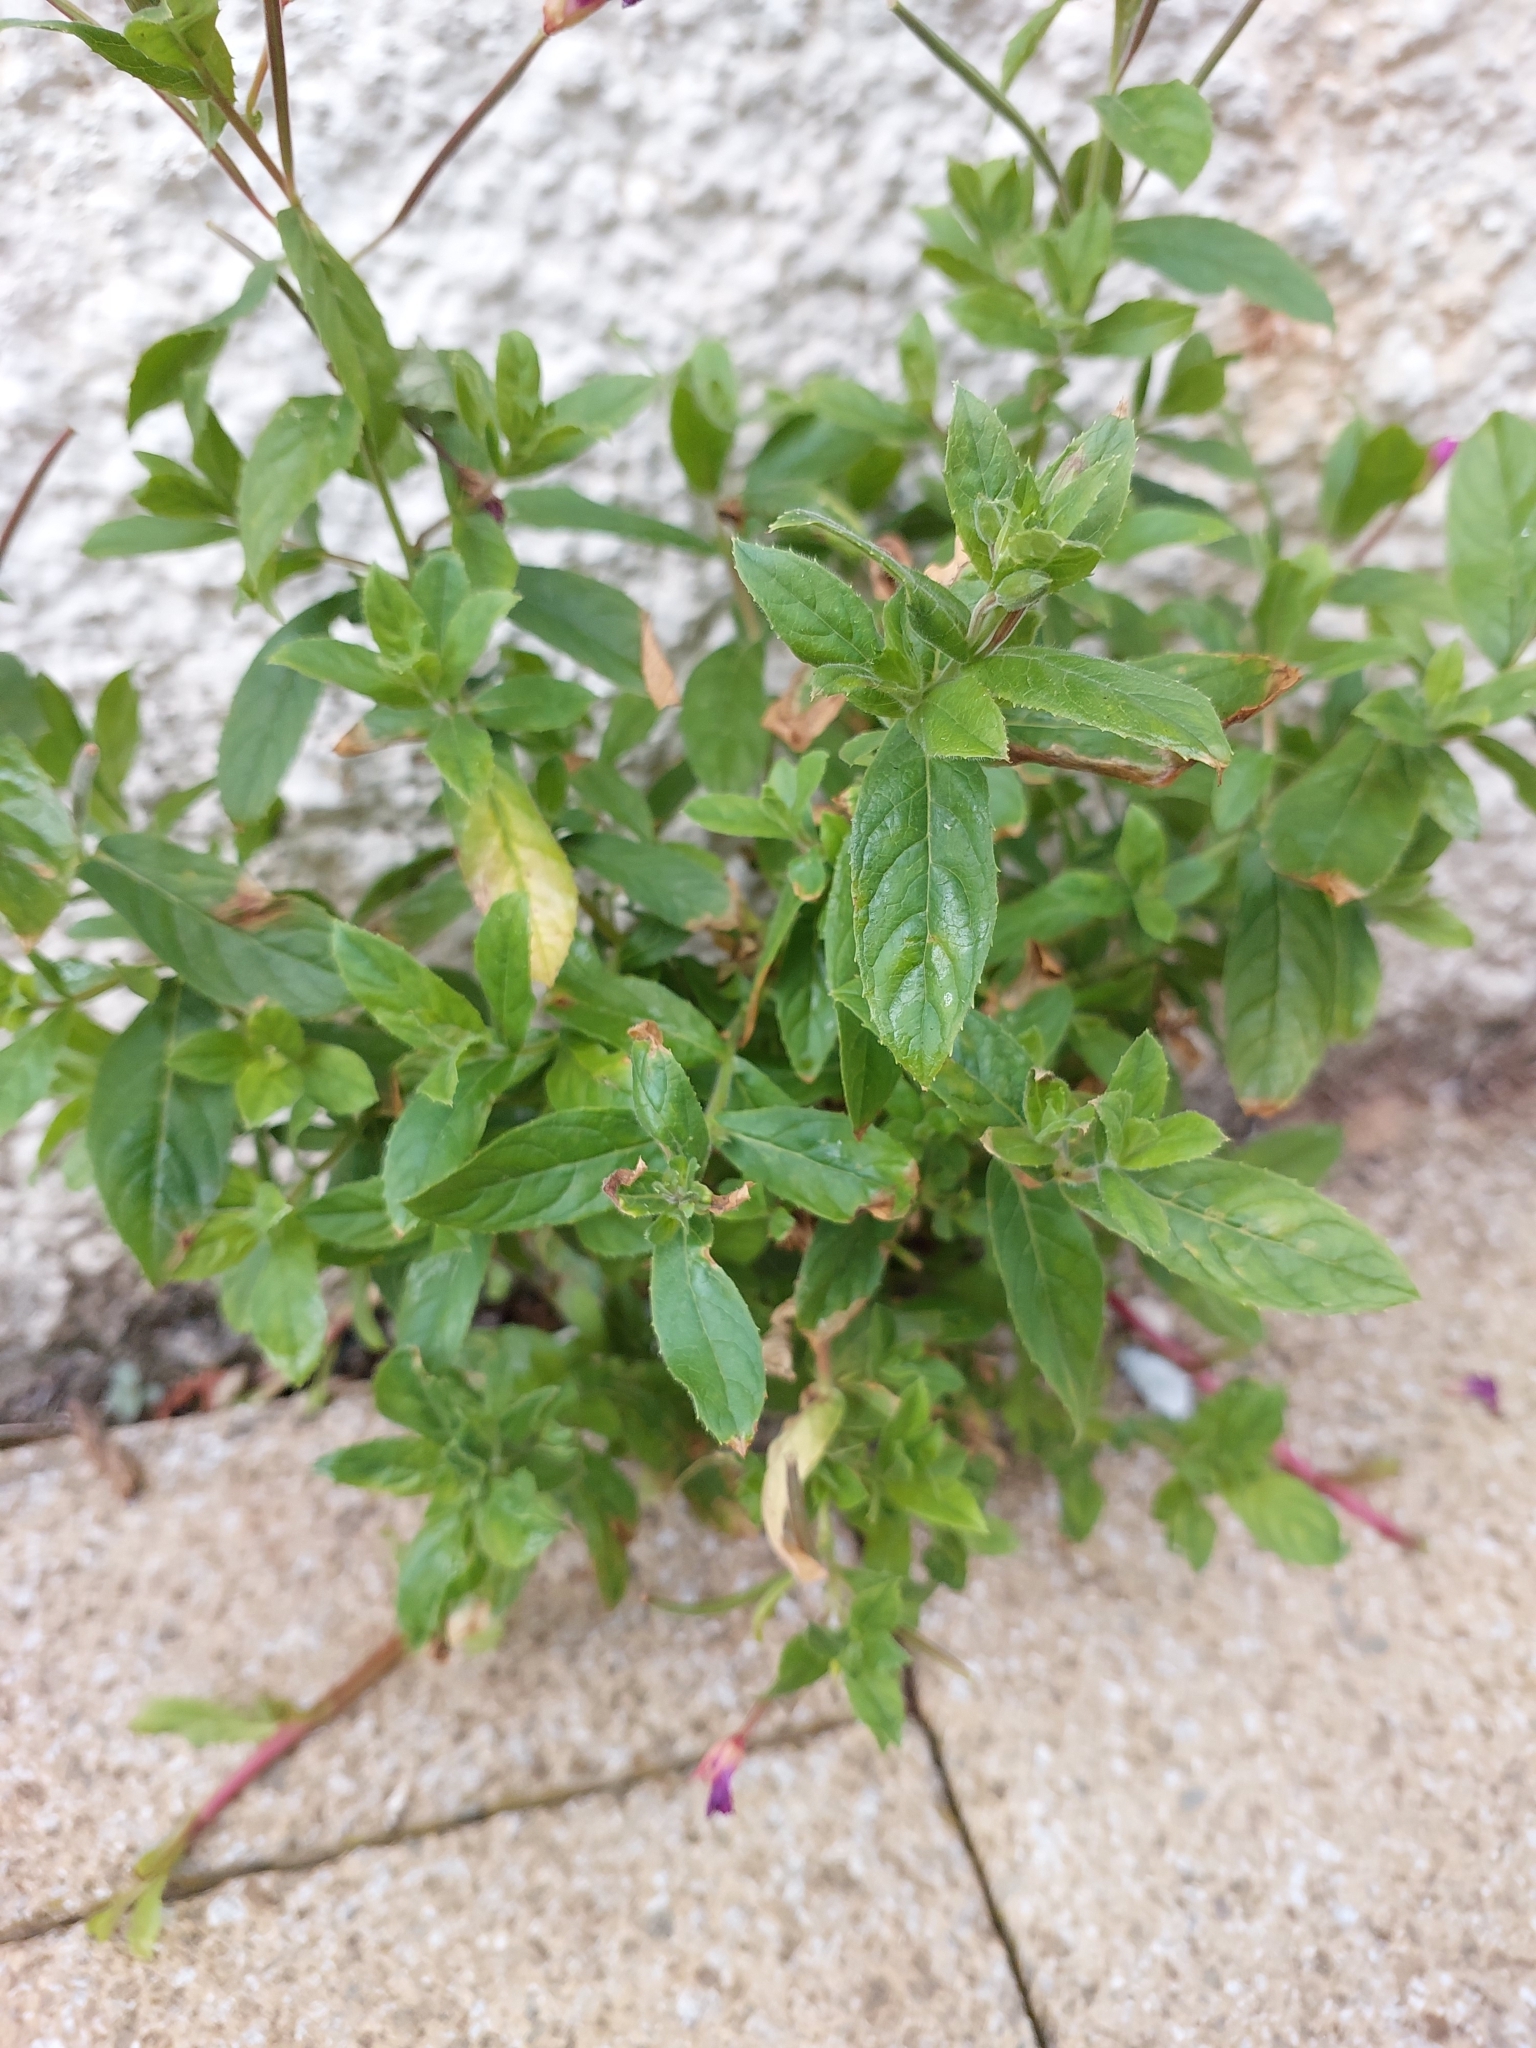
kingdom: Plantae
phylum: Tracheophyta
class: Magnoliopsida
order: Myrtales
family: Onagraceae
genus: Epilobium
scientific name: Epilobium hirsutum
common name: Great willowherb
